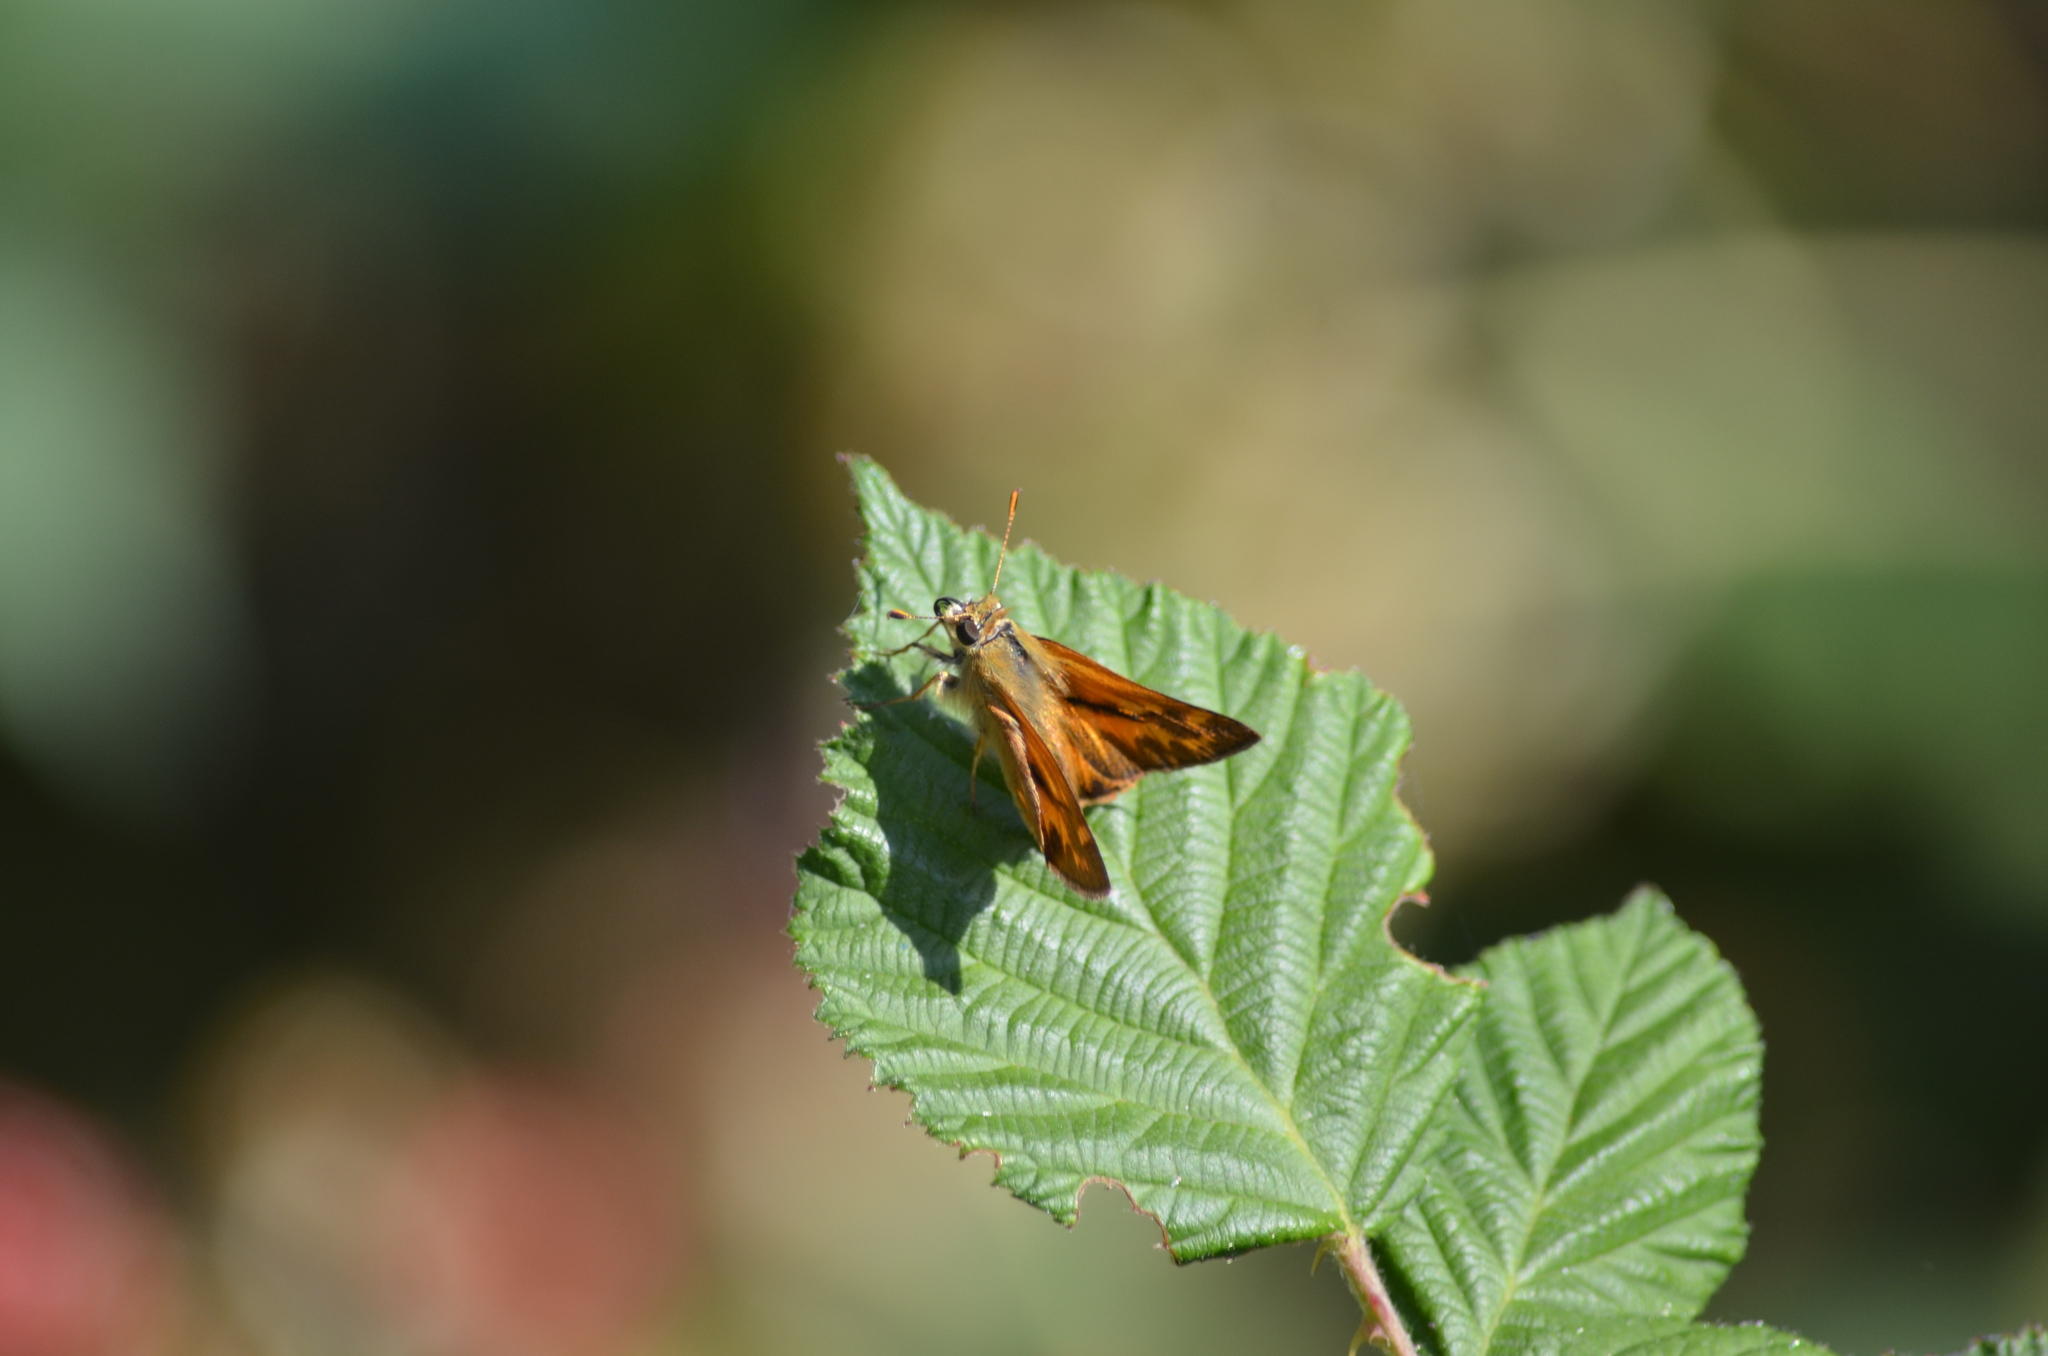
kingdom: Animalia
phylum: Arthropoda
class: Insecta
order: Lepidoptera
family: Hesperiidae
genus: Ochlodes
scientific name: Ochlodes sylvanoides
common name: Woodland skipper
